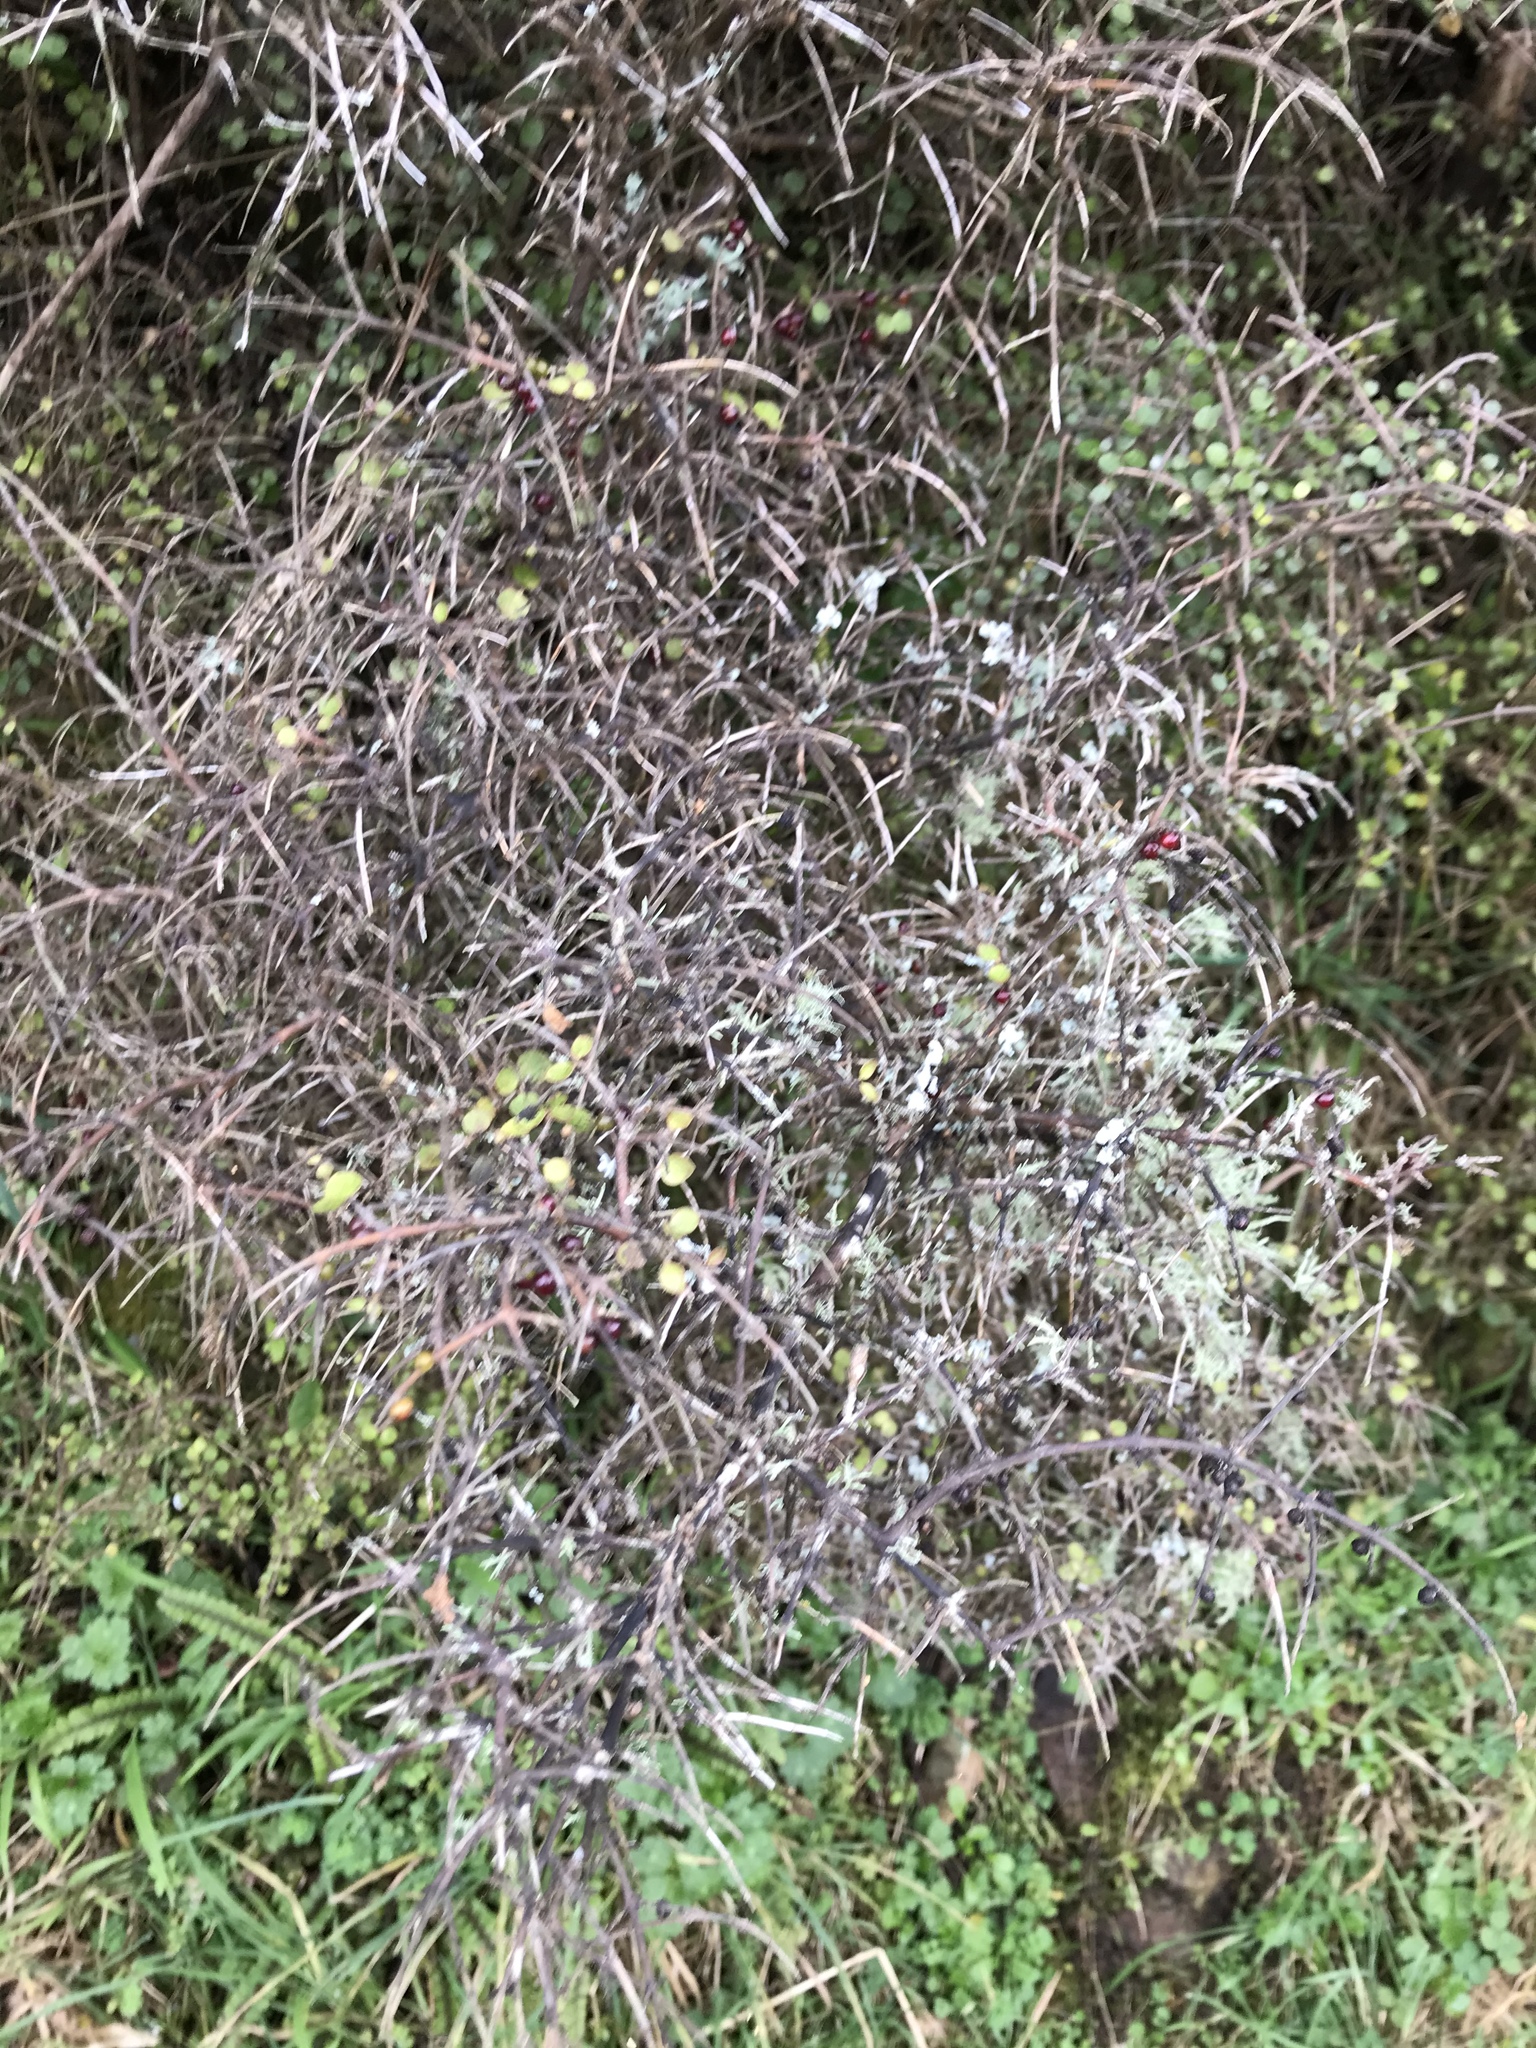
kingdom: Plantae
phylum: Tracheophyta
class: Magnoliopsida
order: Gentianales
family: Rubiaceae
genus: Coprosma
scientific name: Coprosma rhamnoides
